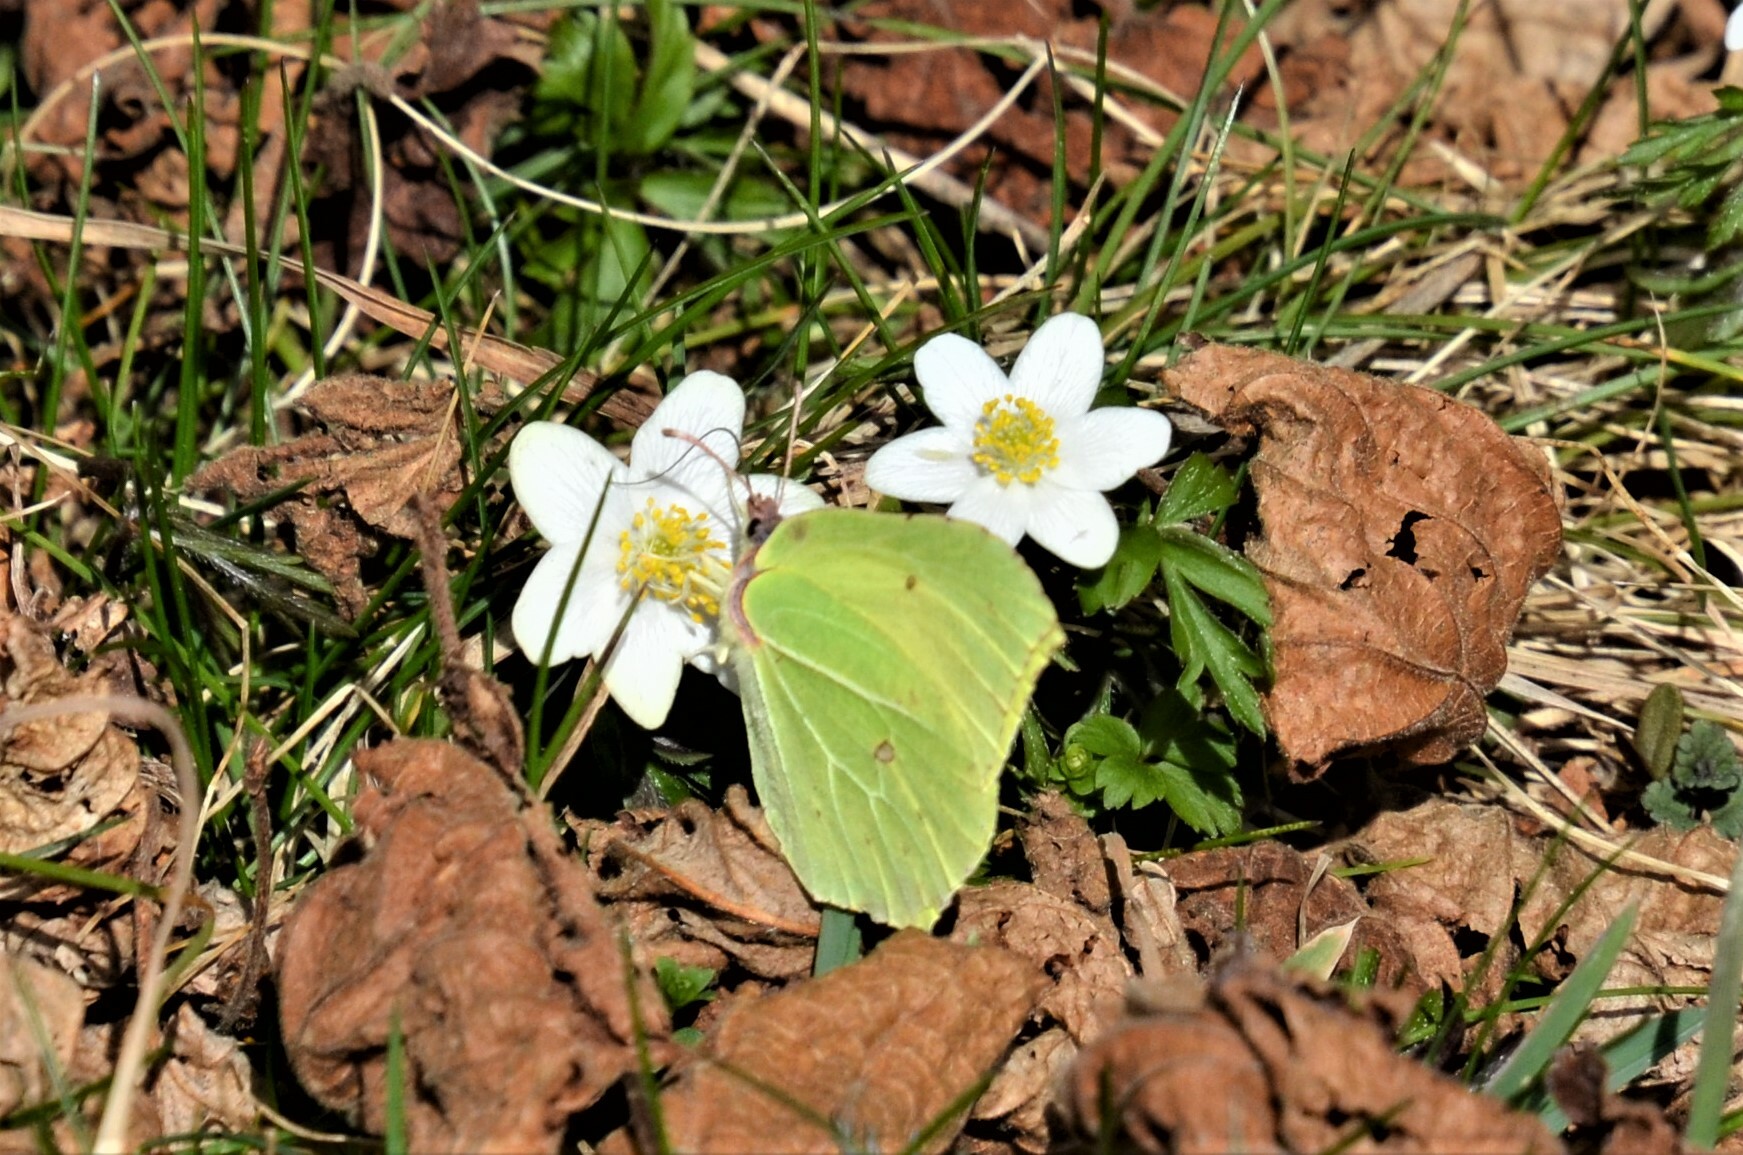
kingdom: Animalia
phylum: Arthropoda
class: Insecta
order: Lepidoptera
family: Pieridae
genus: Gonepteryx
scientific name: Gonepteryx rhamni
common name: Brimstone
